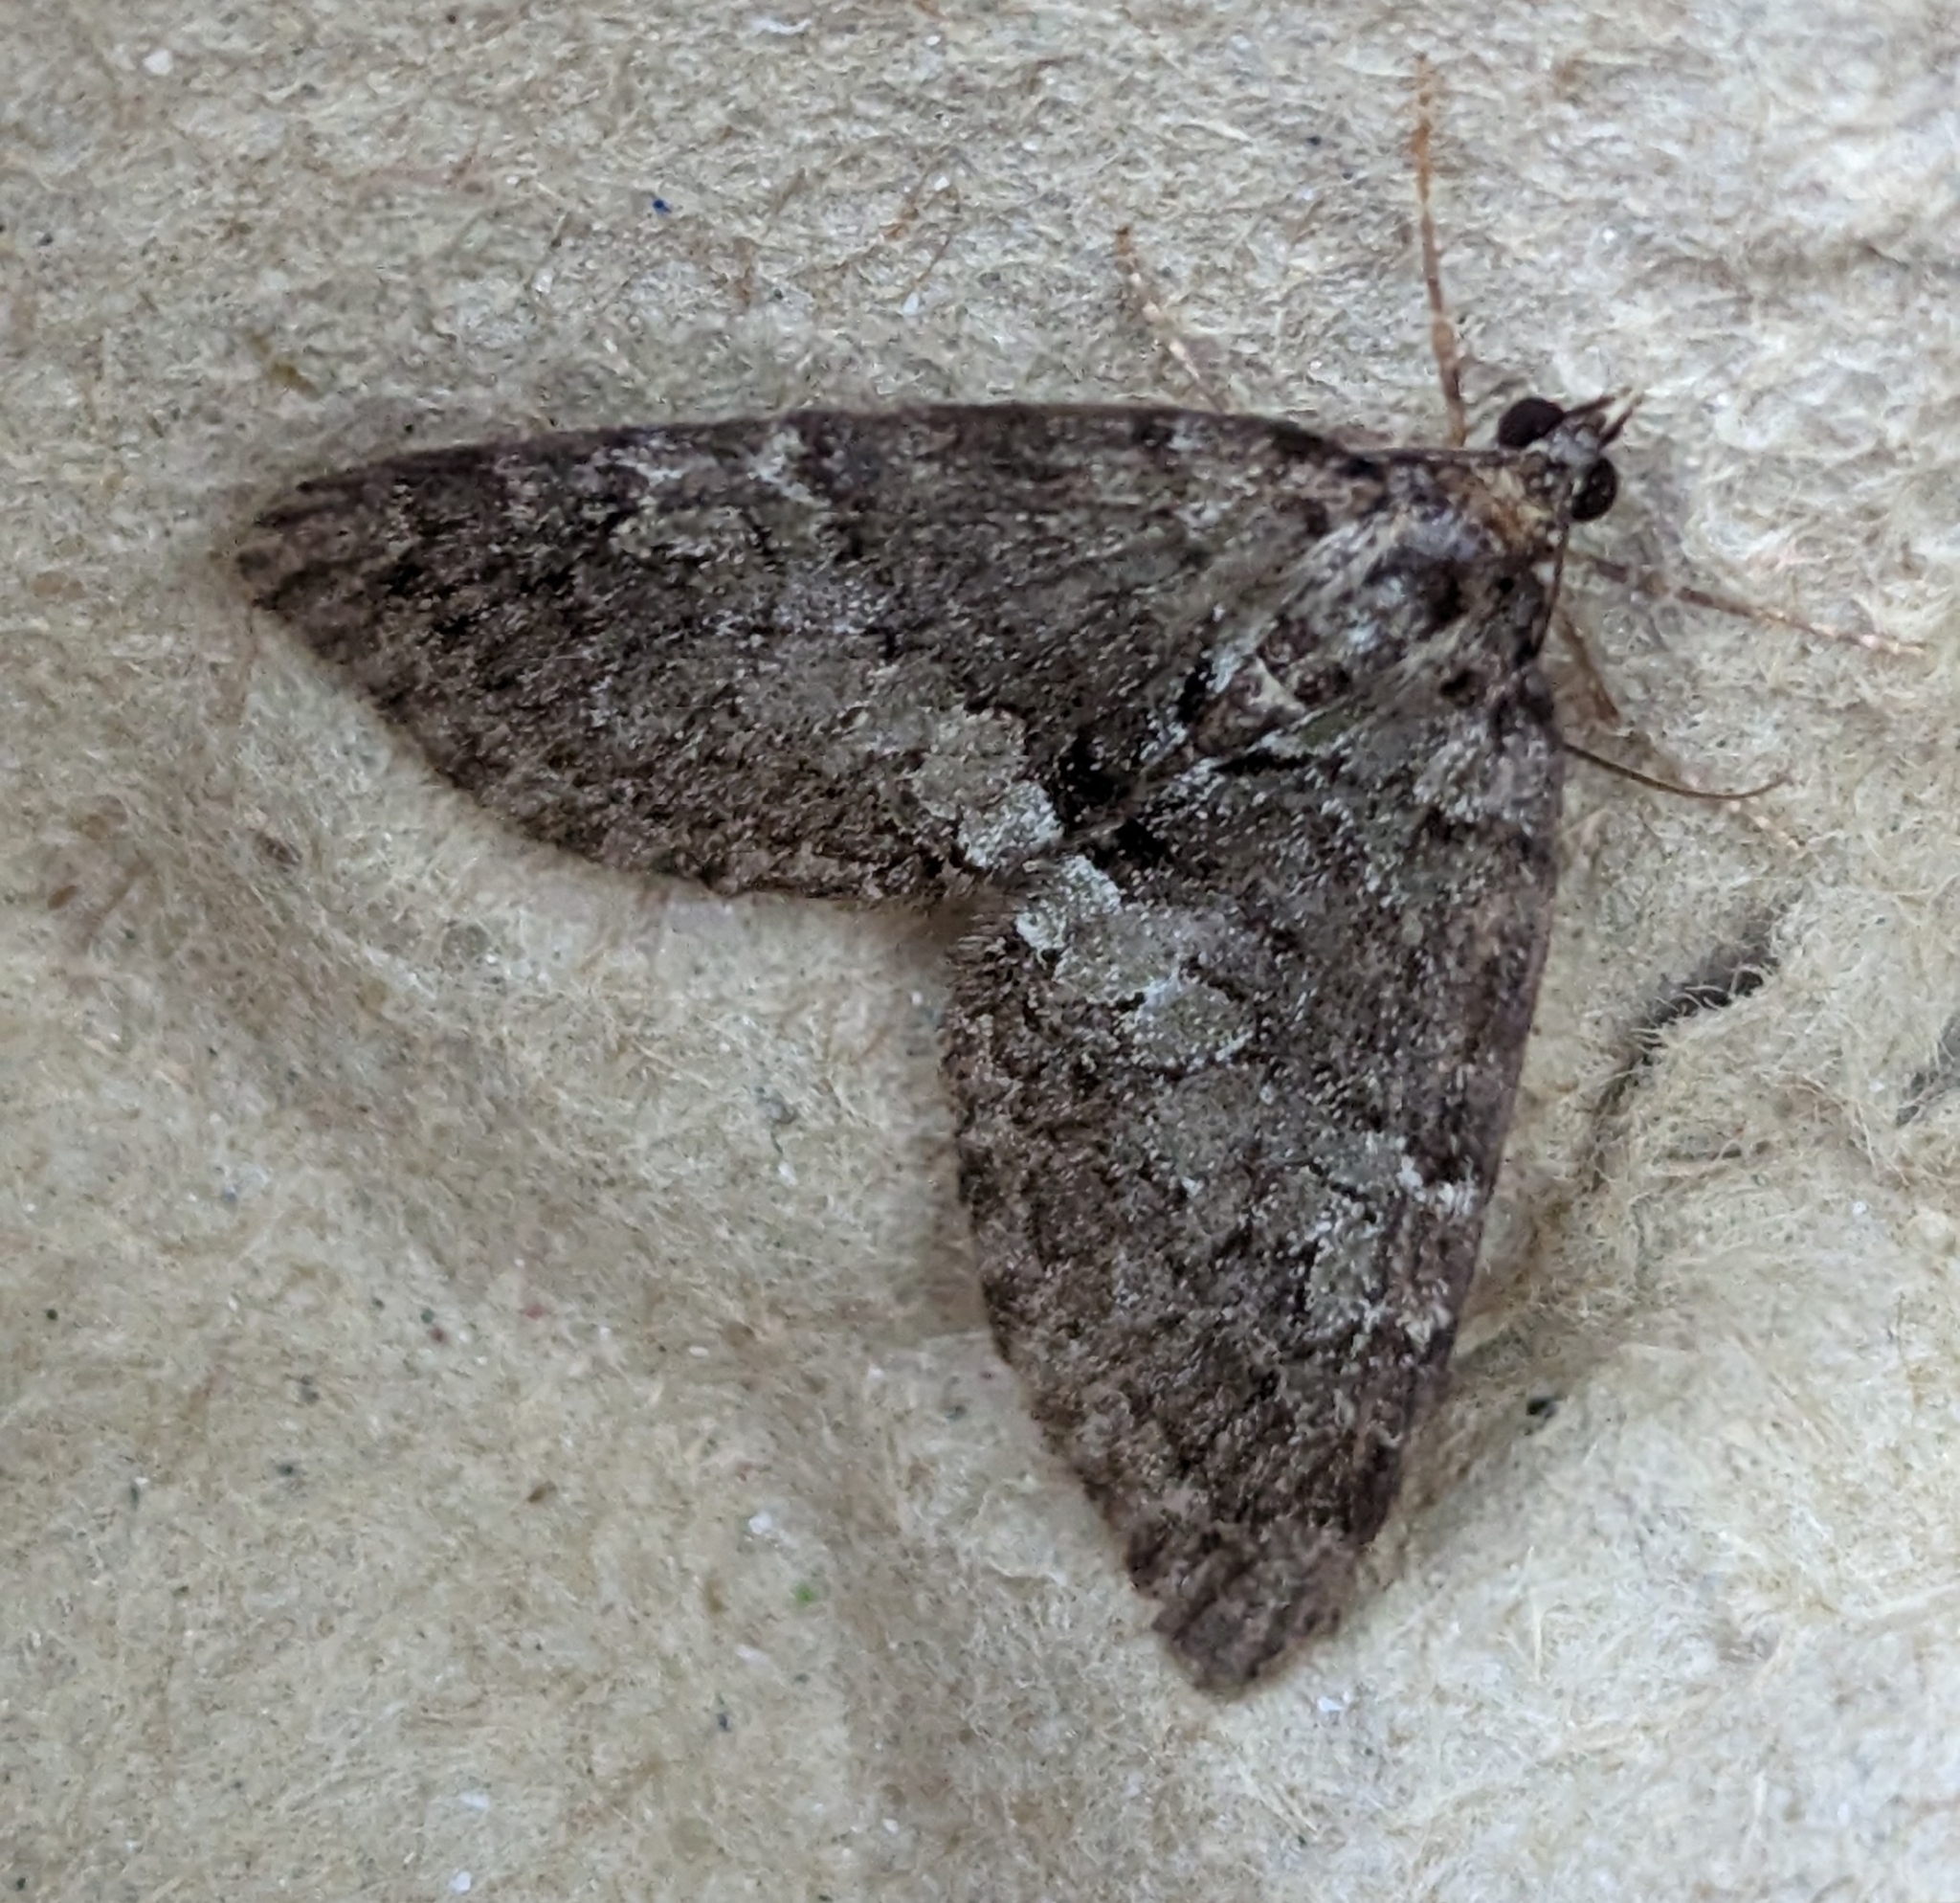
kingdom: Animalia
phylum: Arthropoda
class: Insecta
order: Lepidoptera
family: Geometridae
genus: Hydriomena
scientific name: Hydriomena nubilofasciata
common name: Oak winter highflier moth
